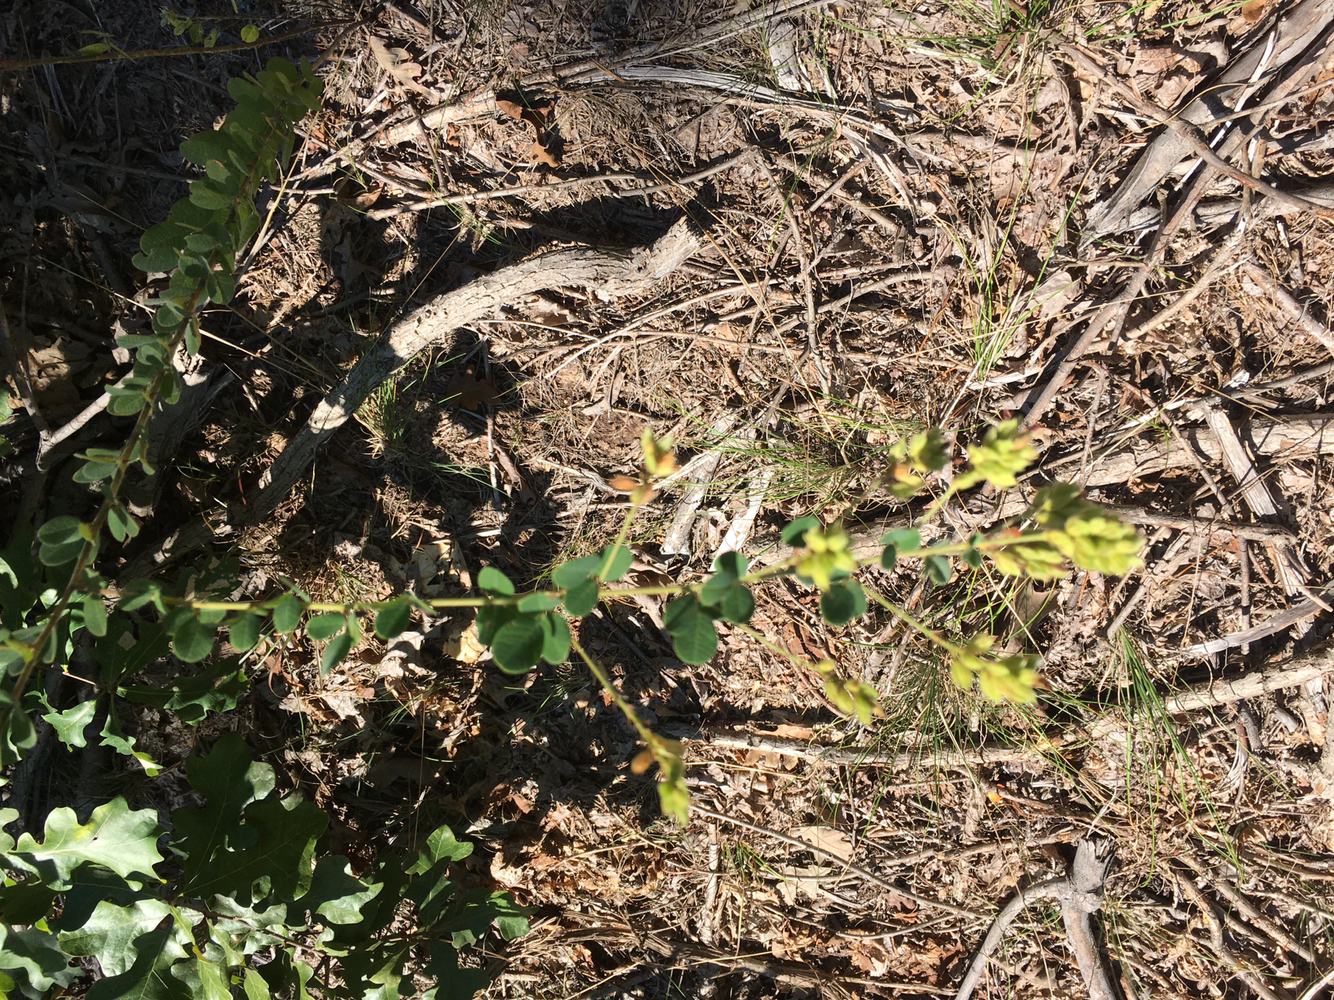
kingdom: Plantae
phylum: Tracheophyta
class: Magnoliopsida
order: Fabales
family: Fabaceae
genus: Lespedeza
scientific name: Lespedeza hirta
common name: Hairy lespedeza
